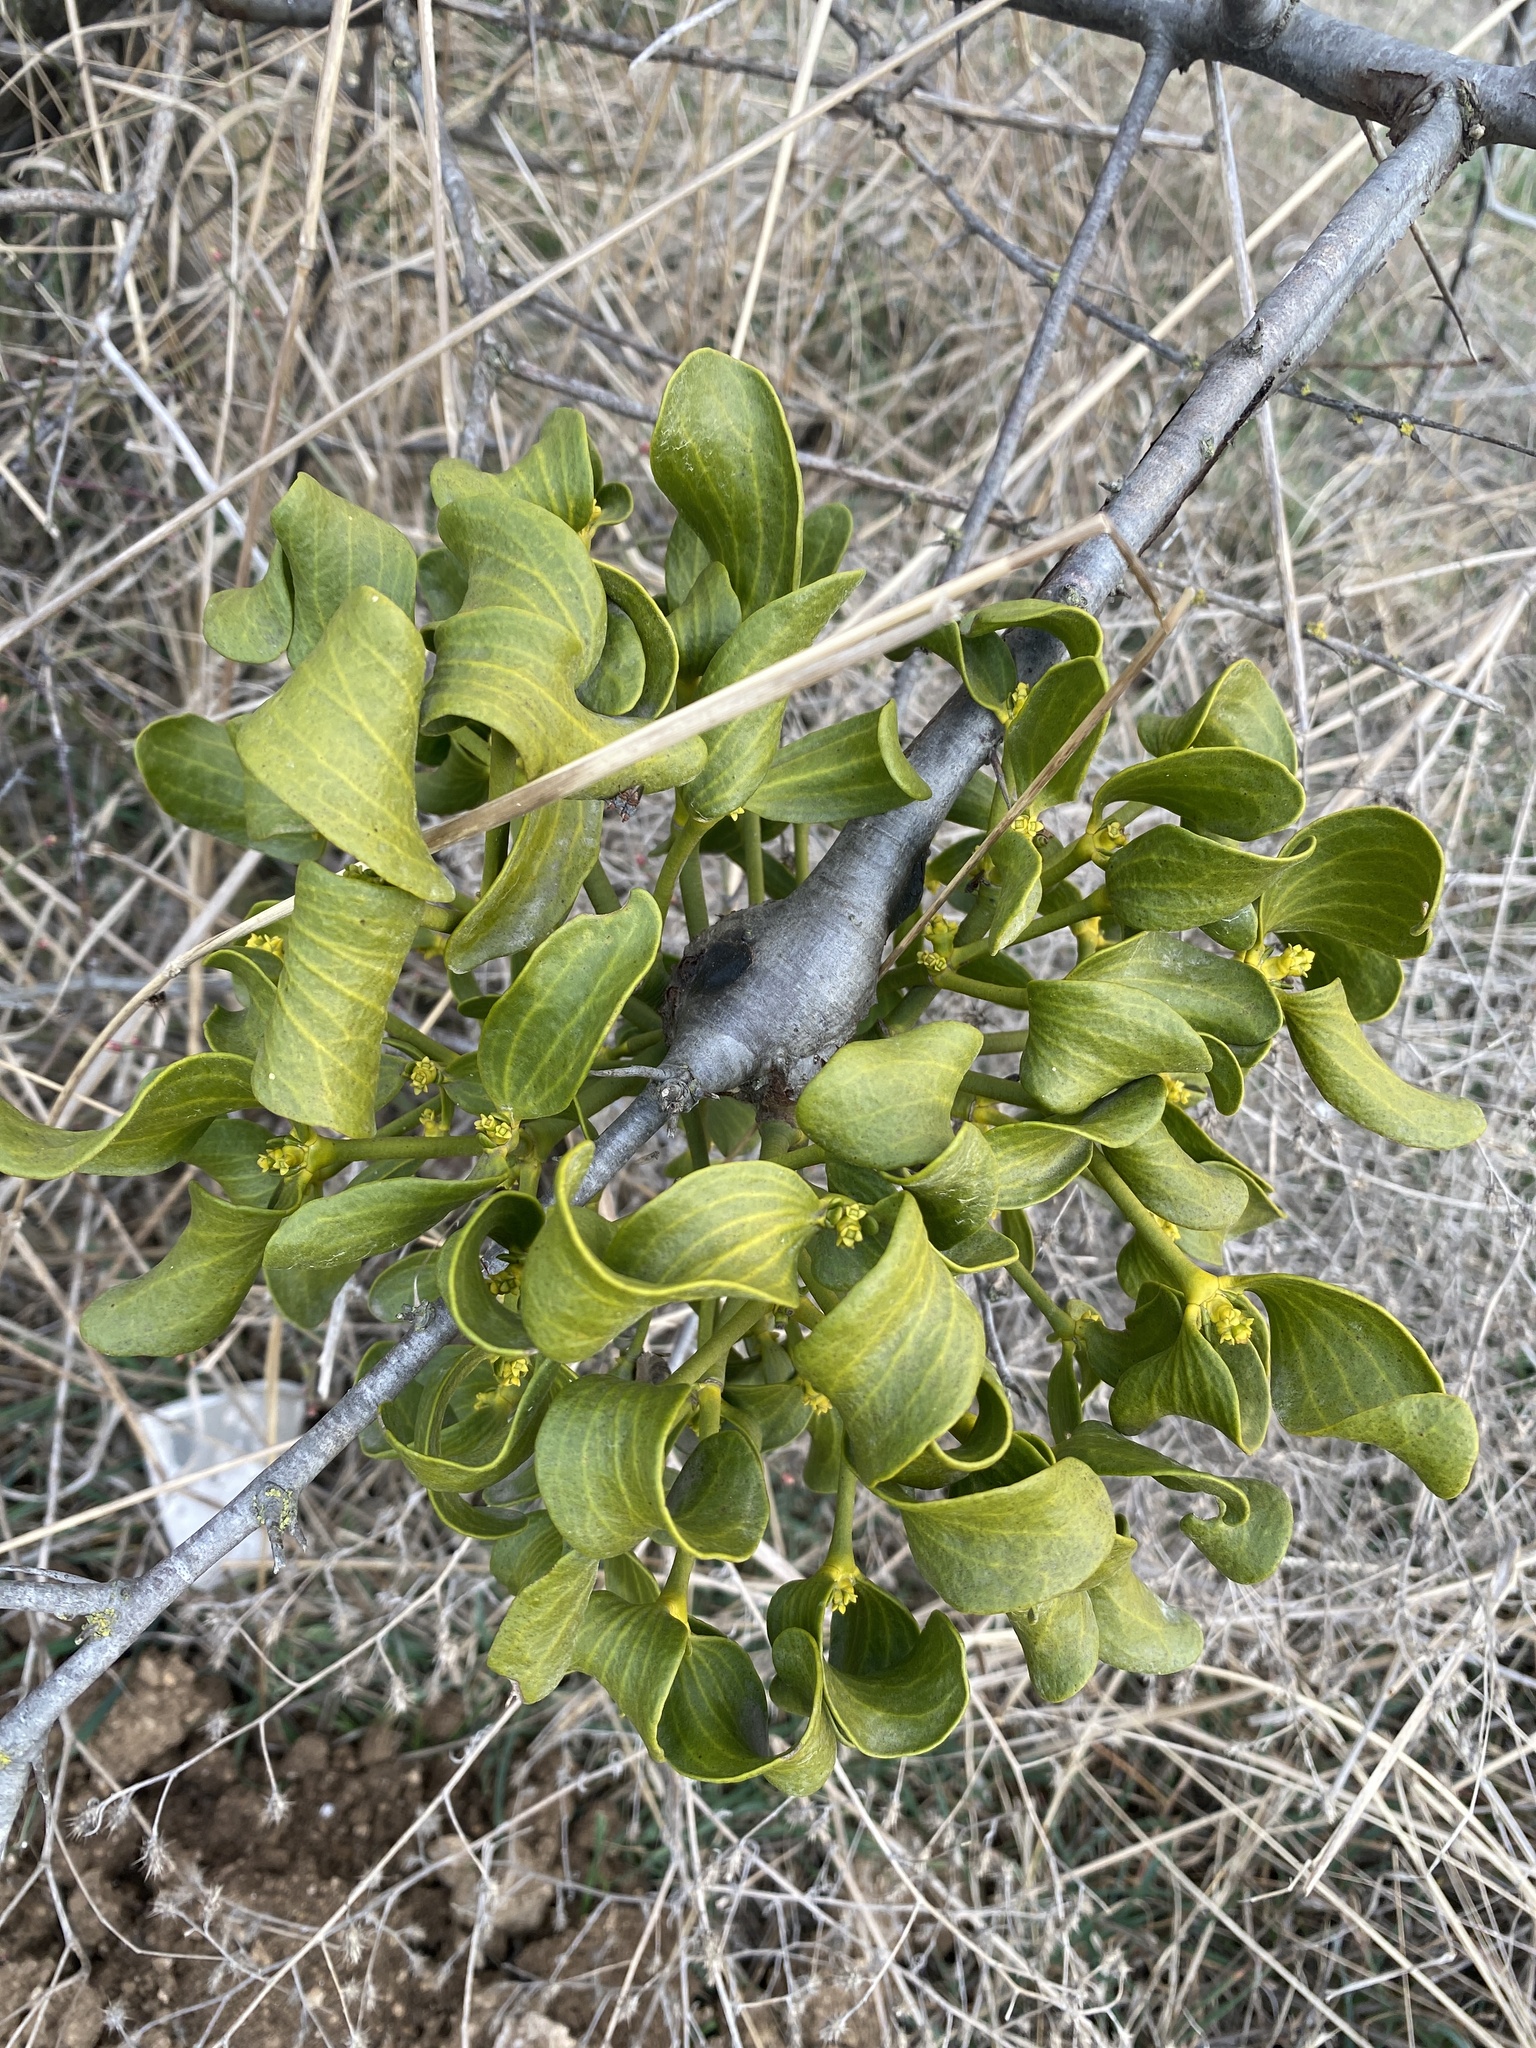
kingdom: Plantae
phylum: Tracheophyta
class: Magnoliopsida
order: Santalales
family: Viscaceae
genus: Viscum
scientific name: Viscum album
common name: Mistletoe
